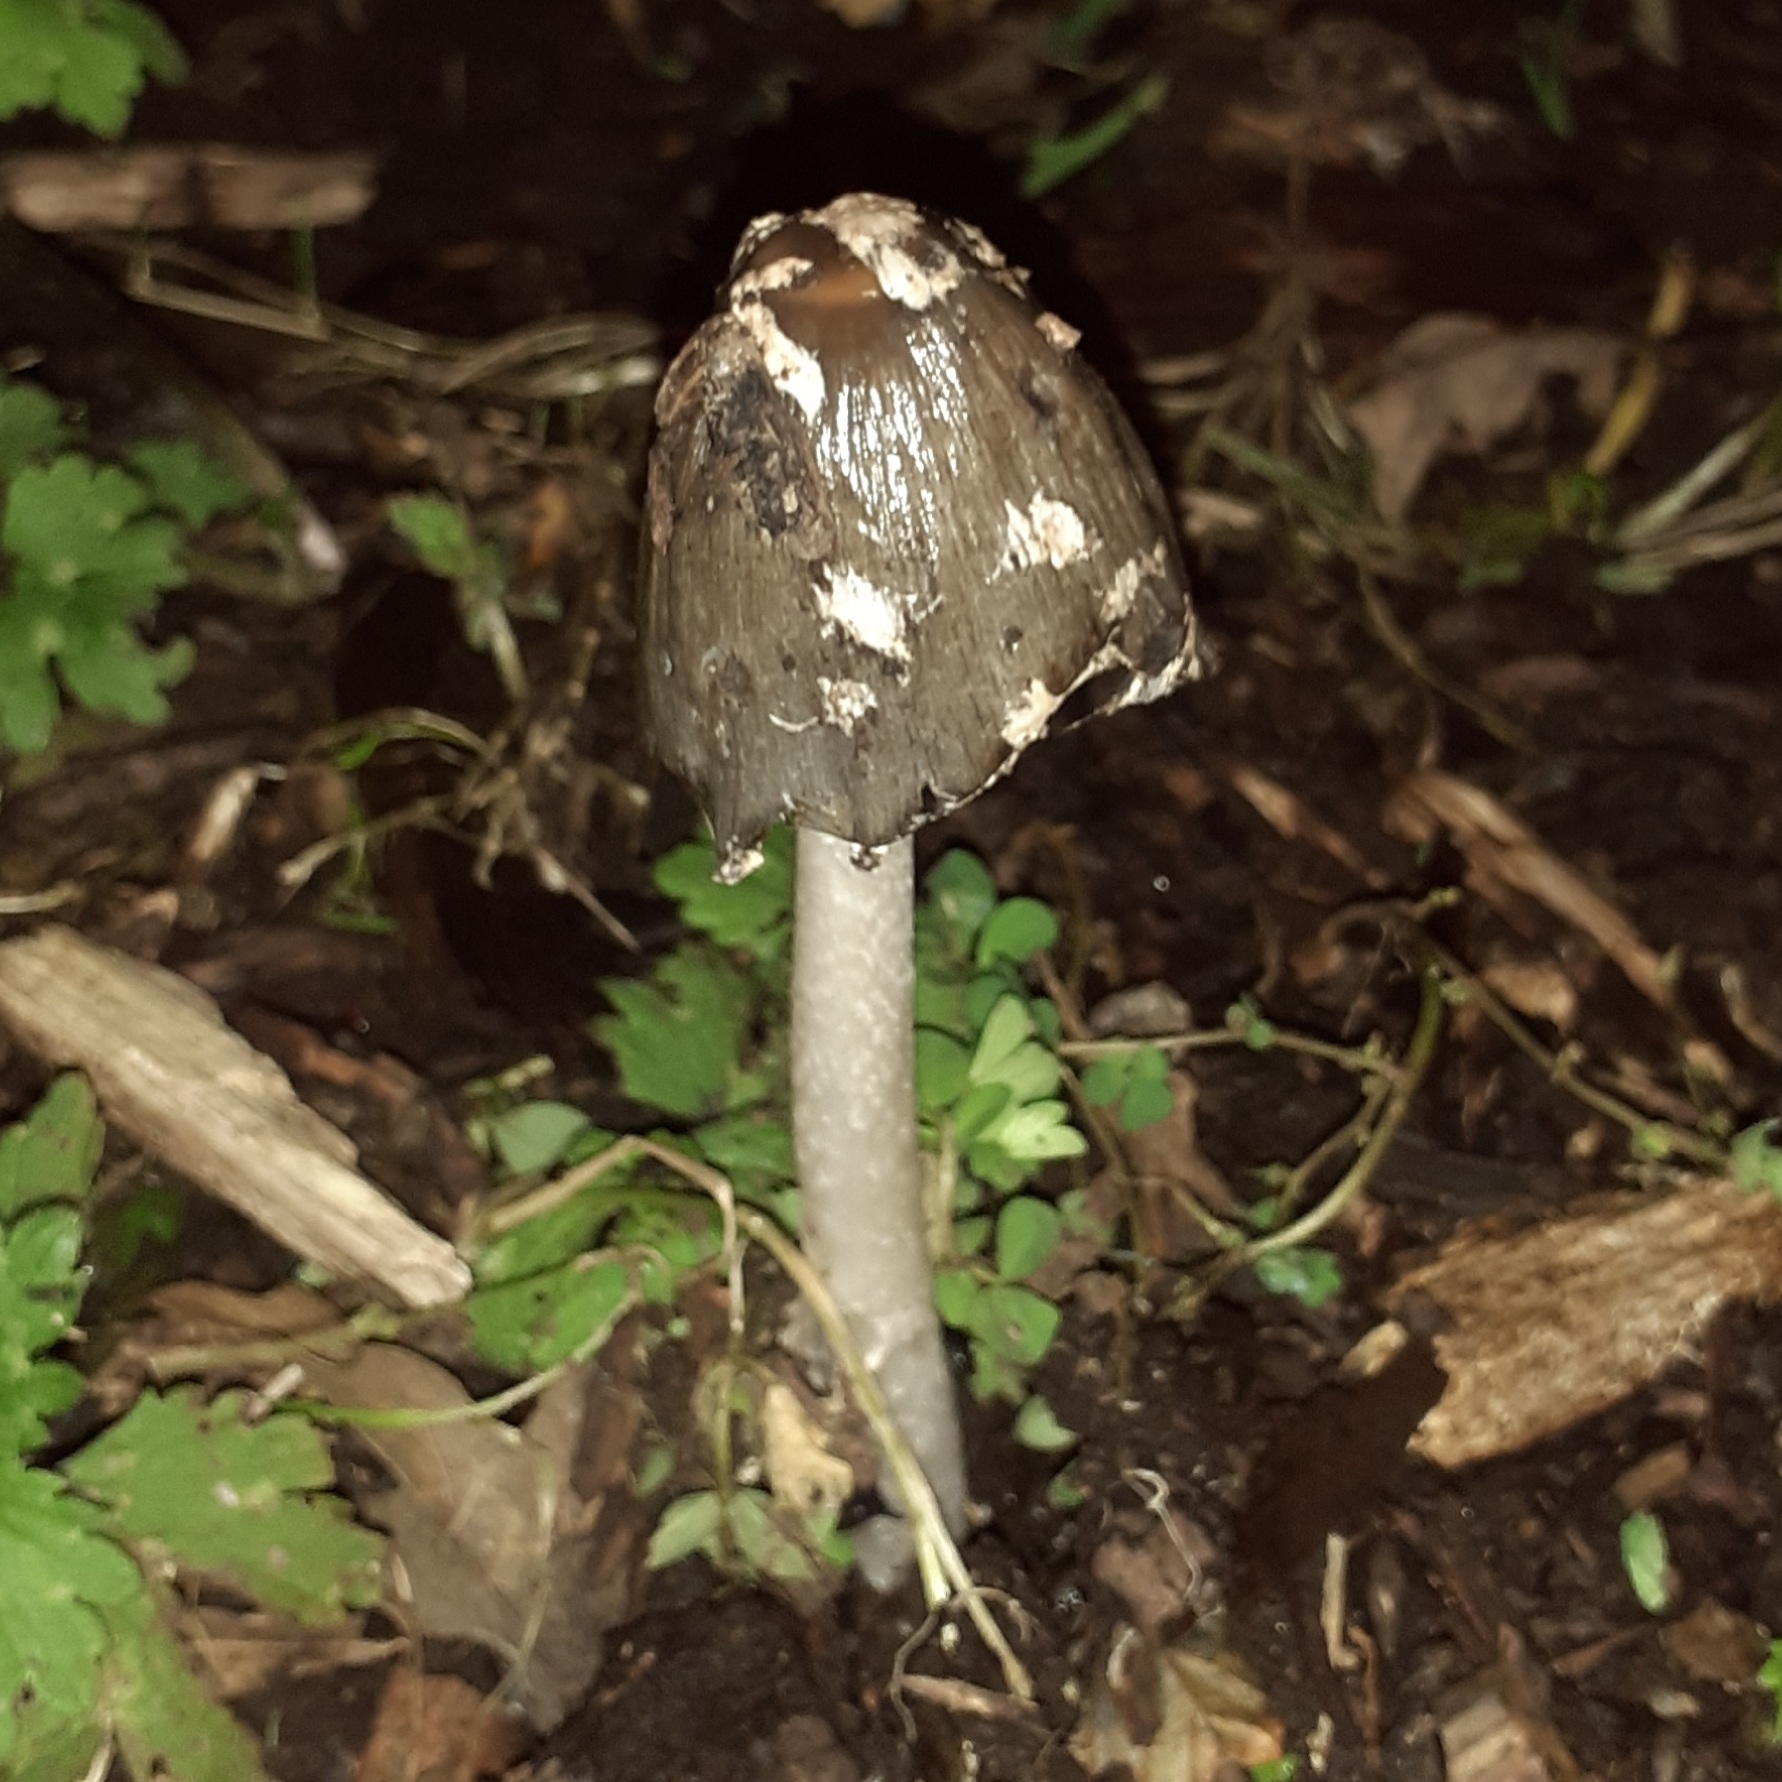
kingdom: Fungi
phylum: Basidiomycota
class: Agaricomycetes
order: Agaricales
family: Psathyrellaceae
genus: Coprinopsis
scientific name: Coprinopsis picacea
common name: Magpie inkcap
